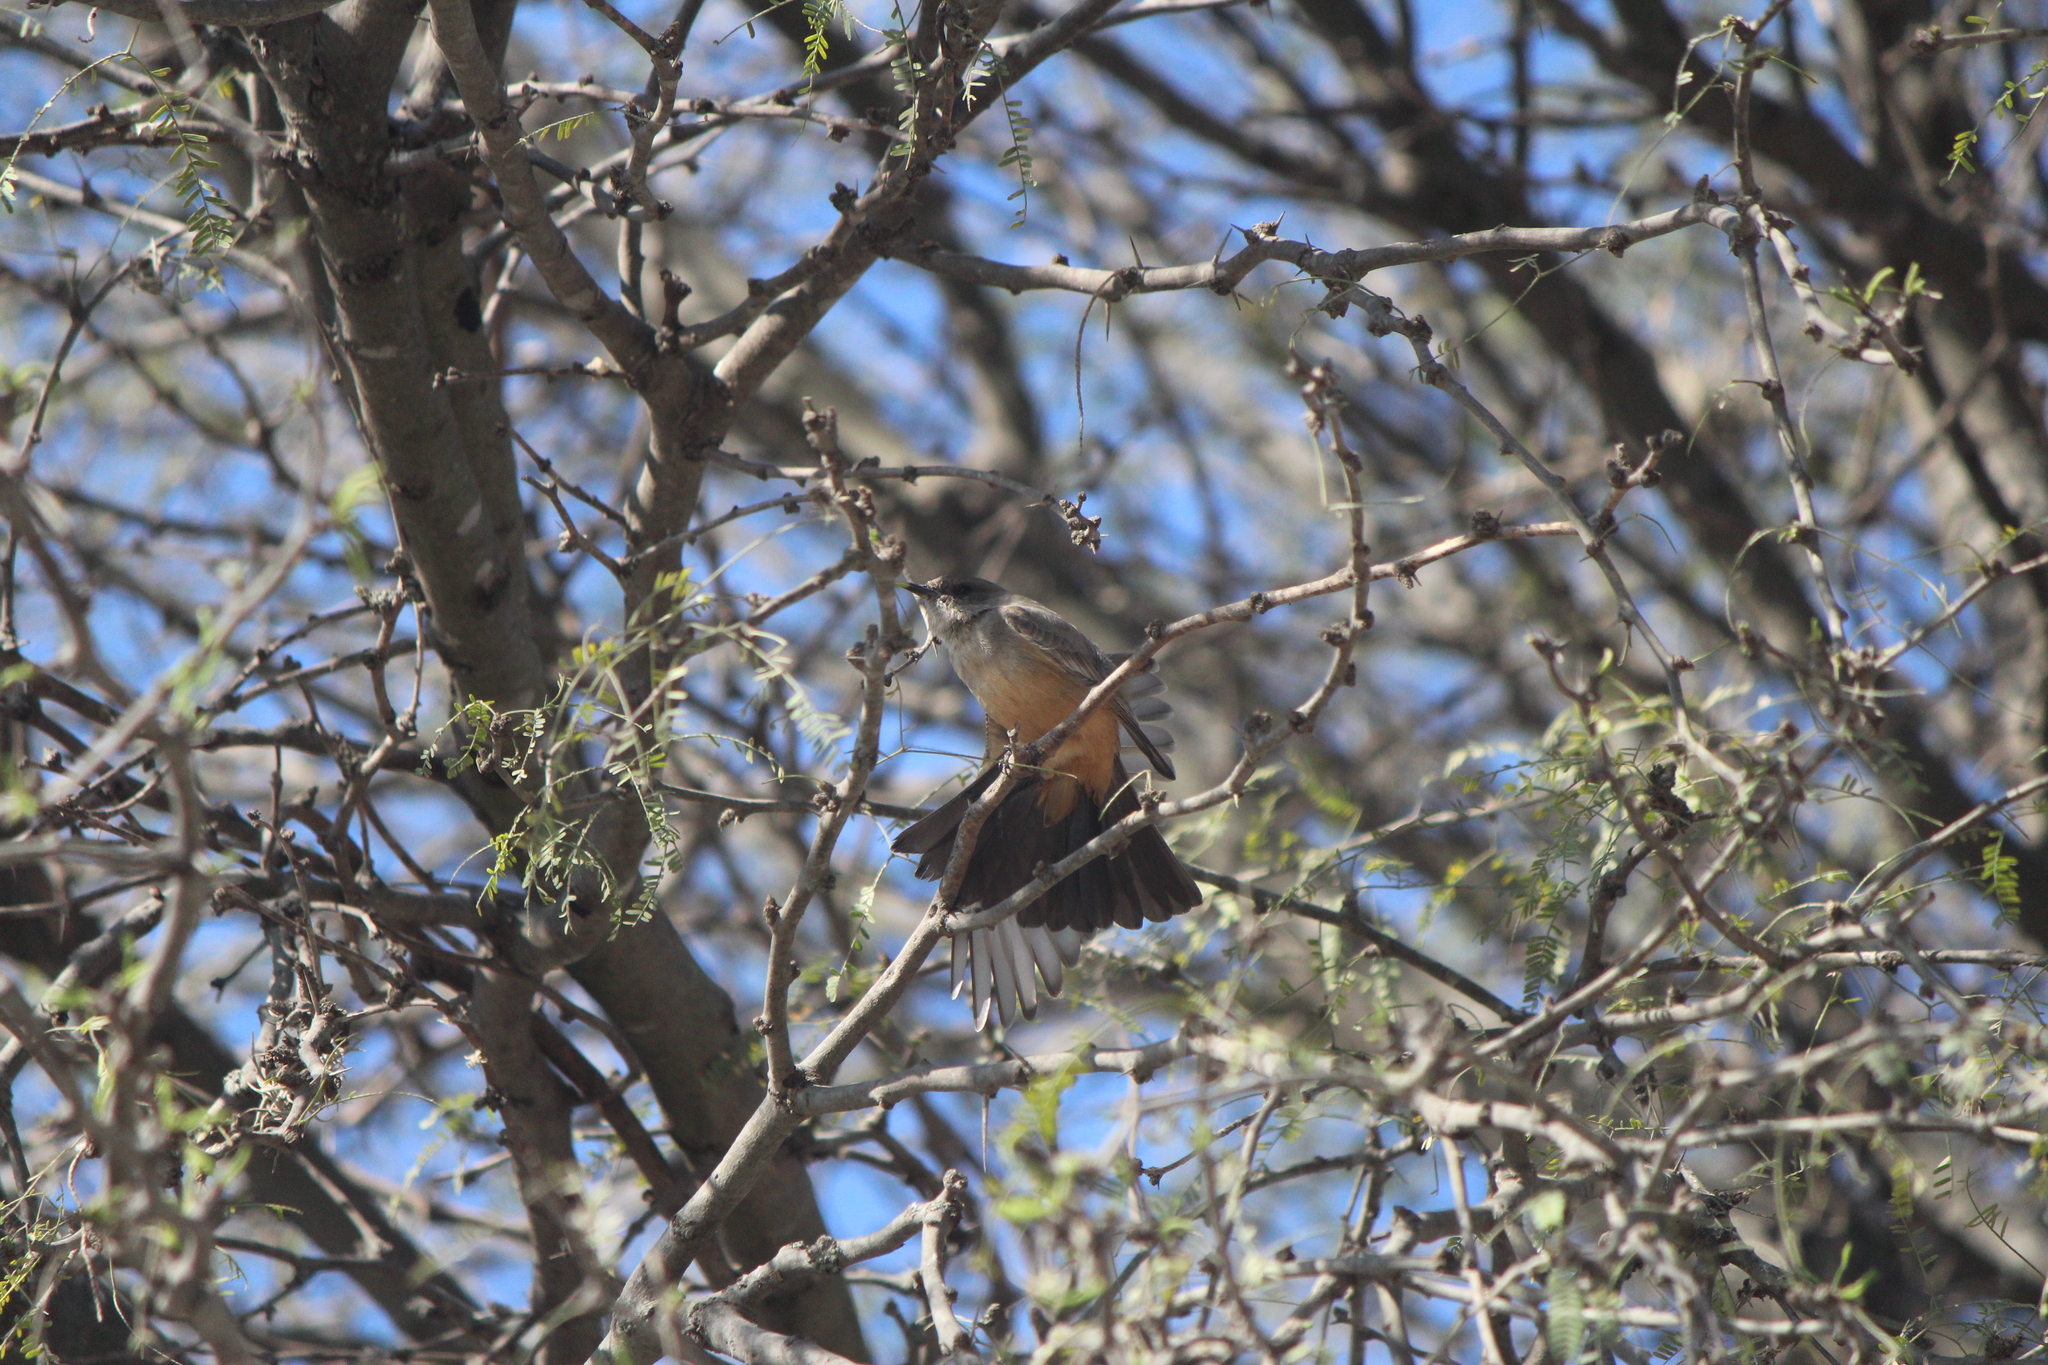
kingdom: Animalia
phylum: Chordata
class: Aves
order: Passeriformes
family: Tyrannidae
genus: Sayornis
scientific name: Sayornis saya
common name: Say's phoebe
